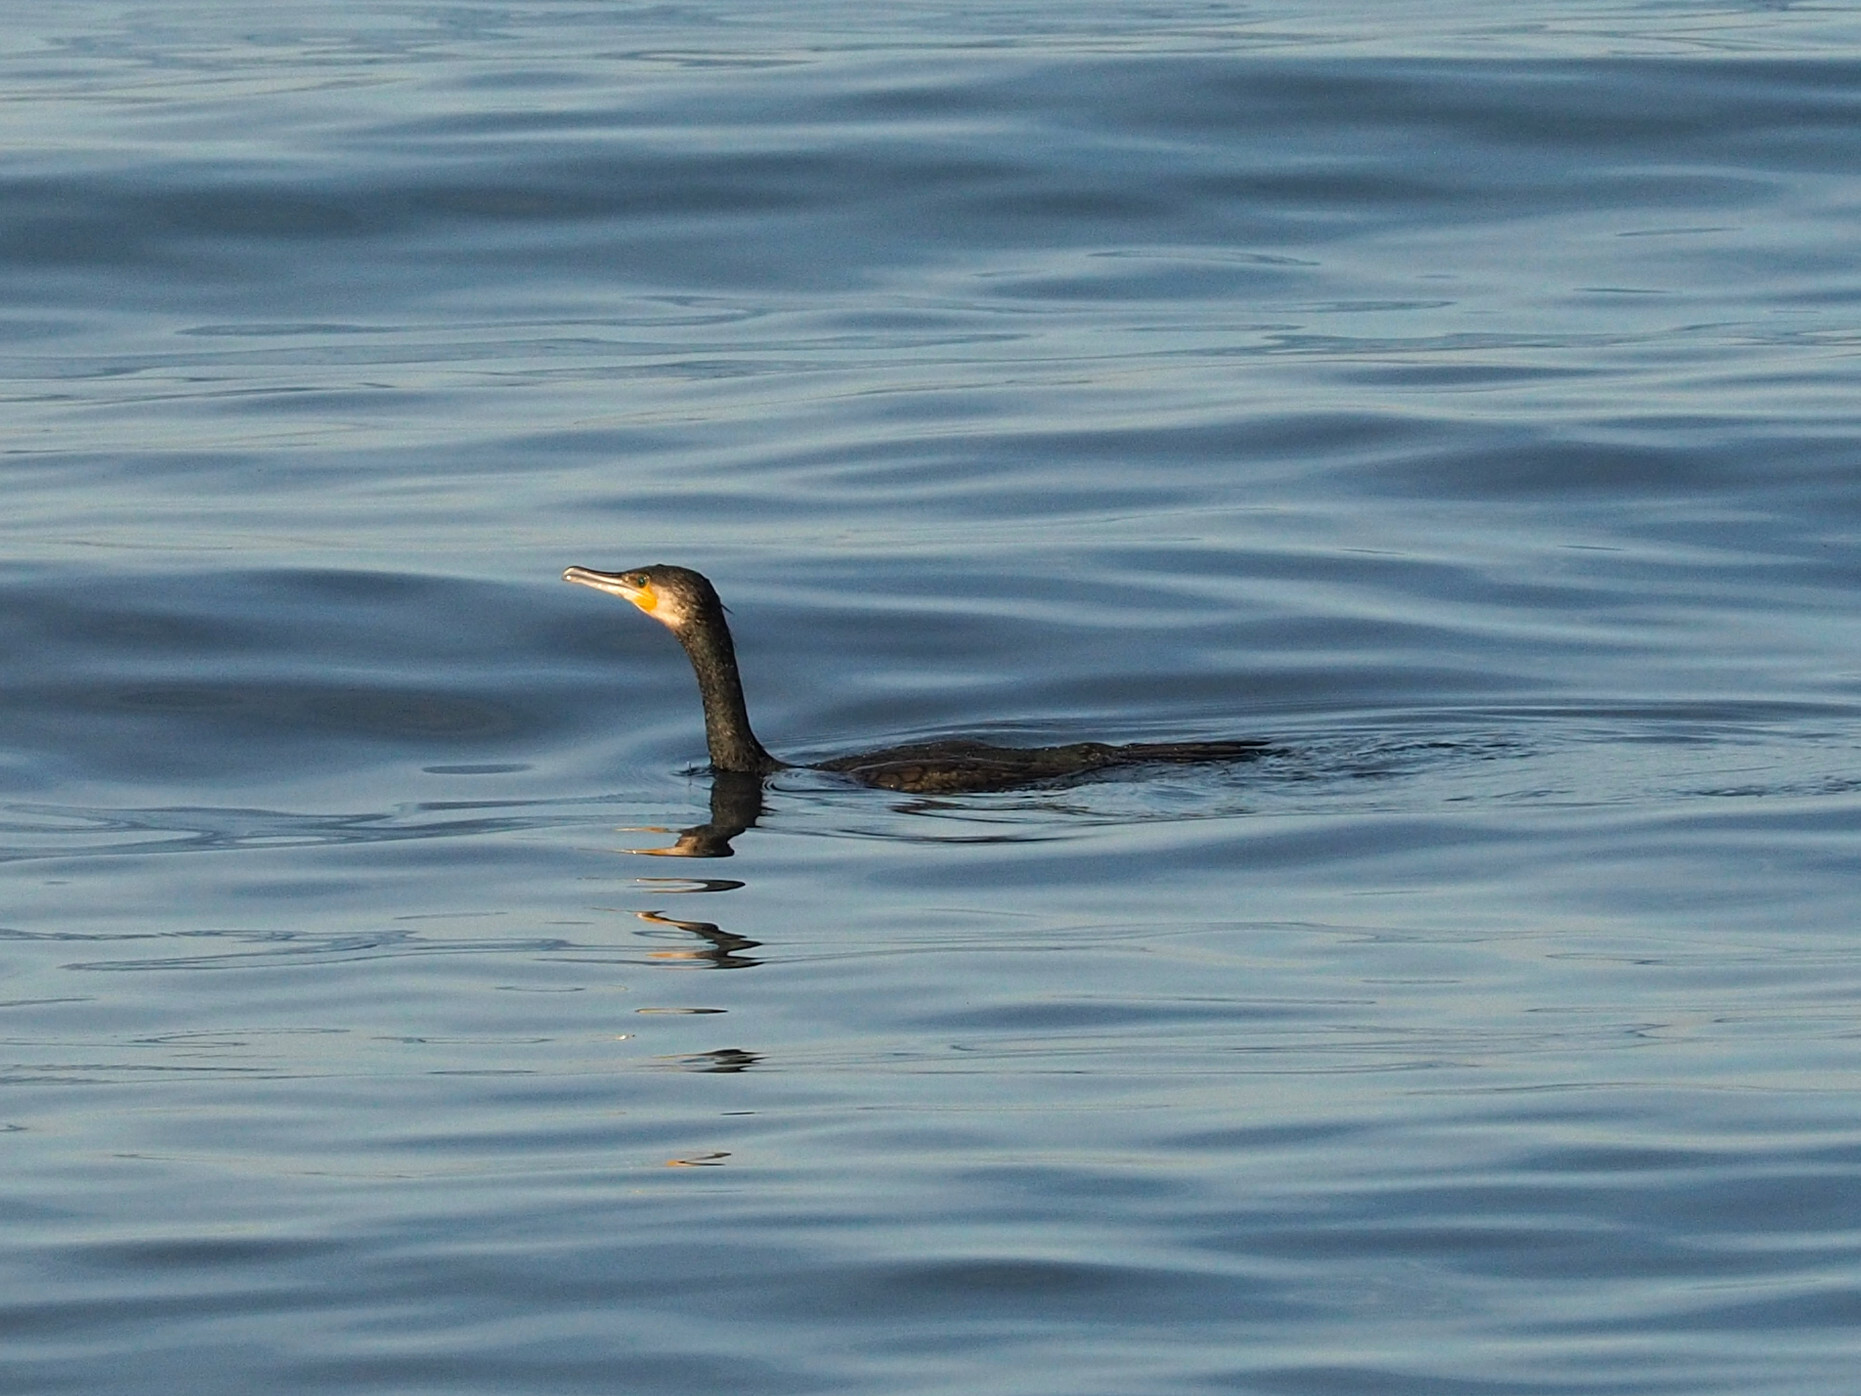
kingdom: Animalia
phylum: Chordata
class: Aves
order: Suliformes
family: Phalacrocoracidae
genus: Phalacrocorax
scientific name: Phalacrocorax carbo
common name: Great cormorant
